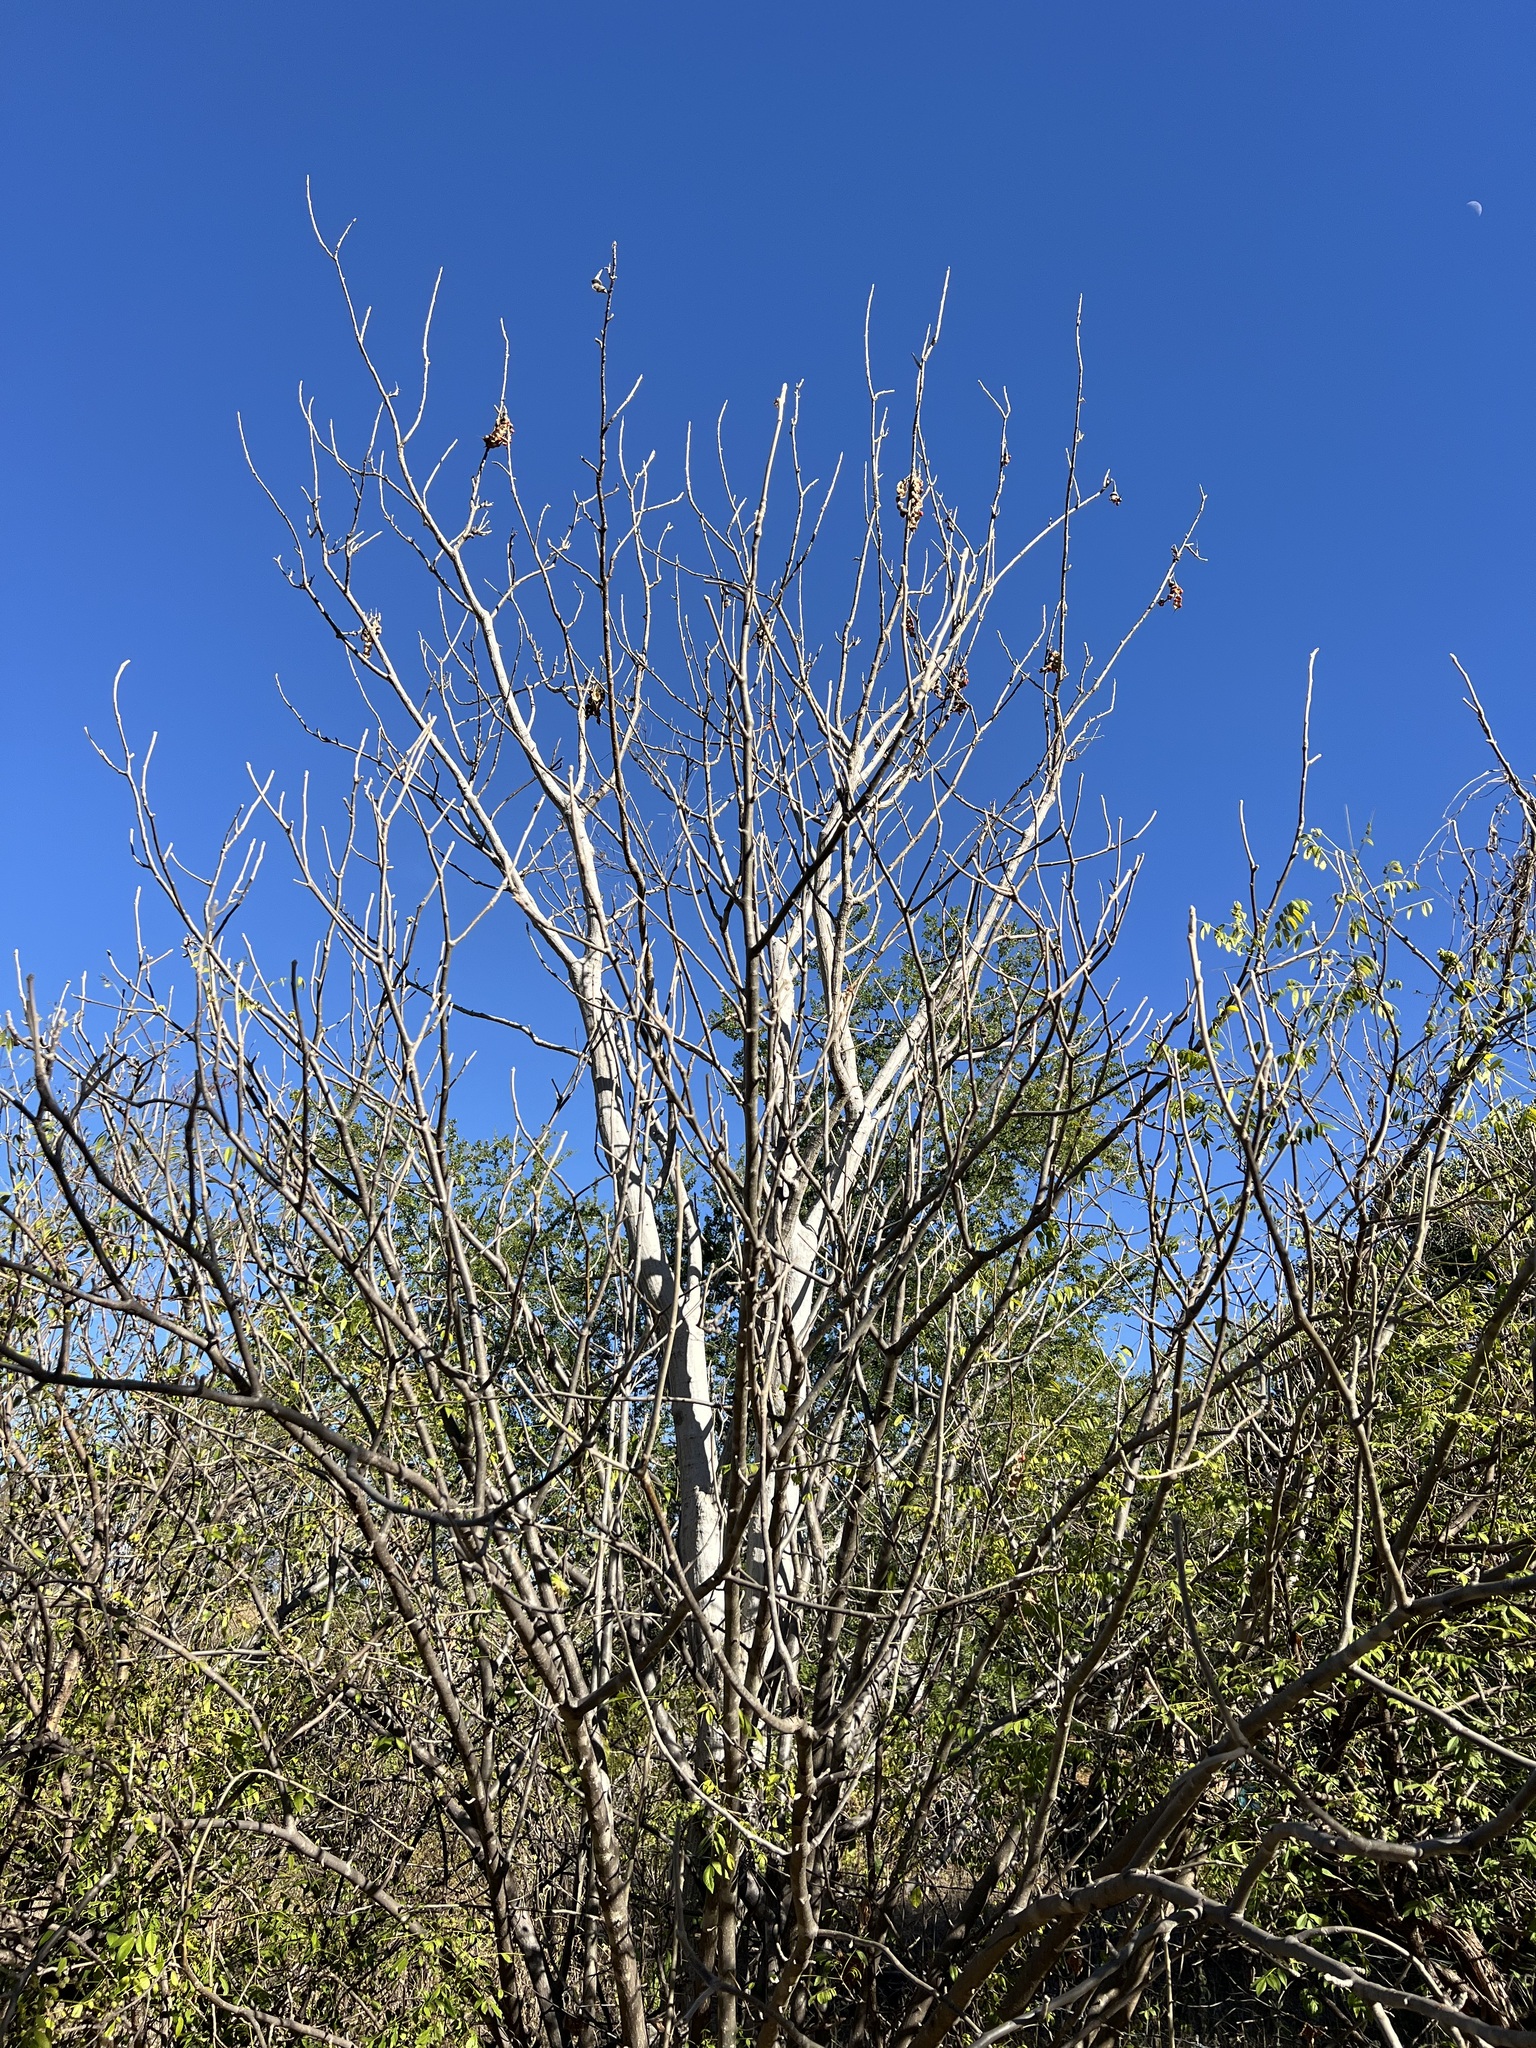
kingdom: Plantae
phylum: Tracheophyta
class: Magnoliopsida
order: Fabales
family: Fabaceae
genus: Erythrina
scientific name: Erythrina flabelliformis
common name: Chilicote
